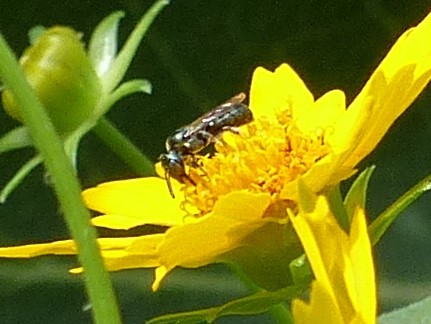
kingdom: Animalia
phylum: Arthropoda
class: Insecta
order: Hymenoptera
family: Apidae
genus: Zadontomerus
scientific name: Zadontomerus
